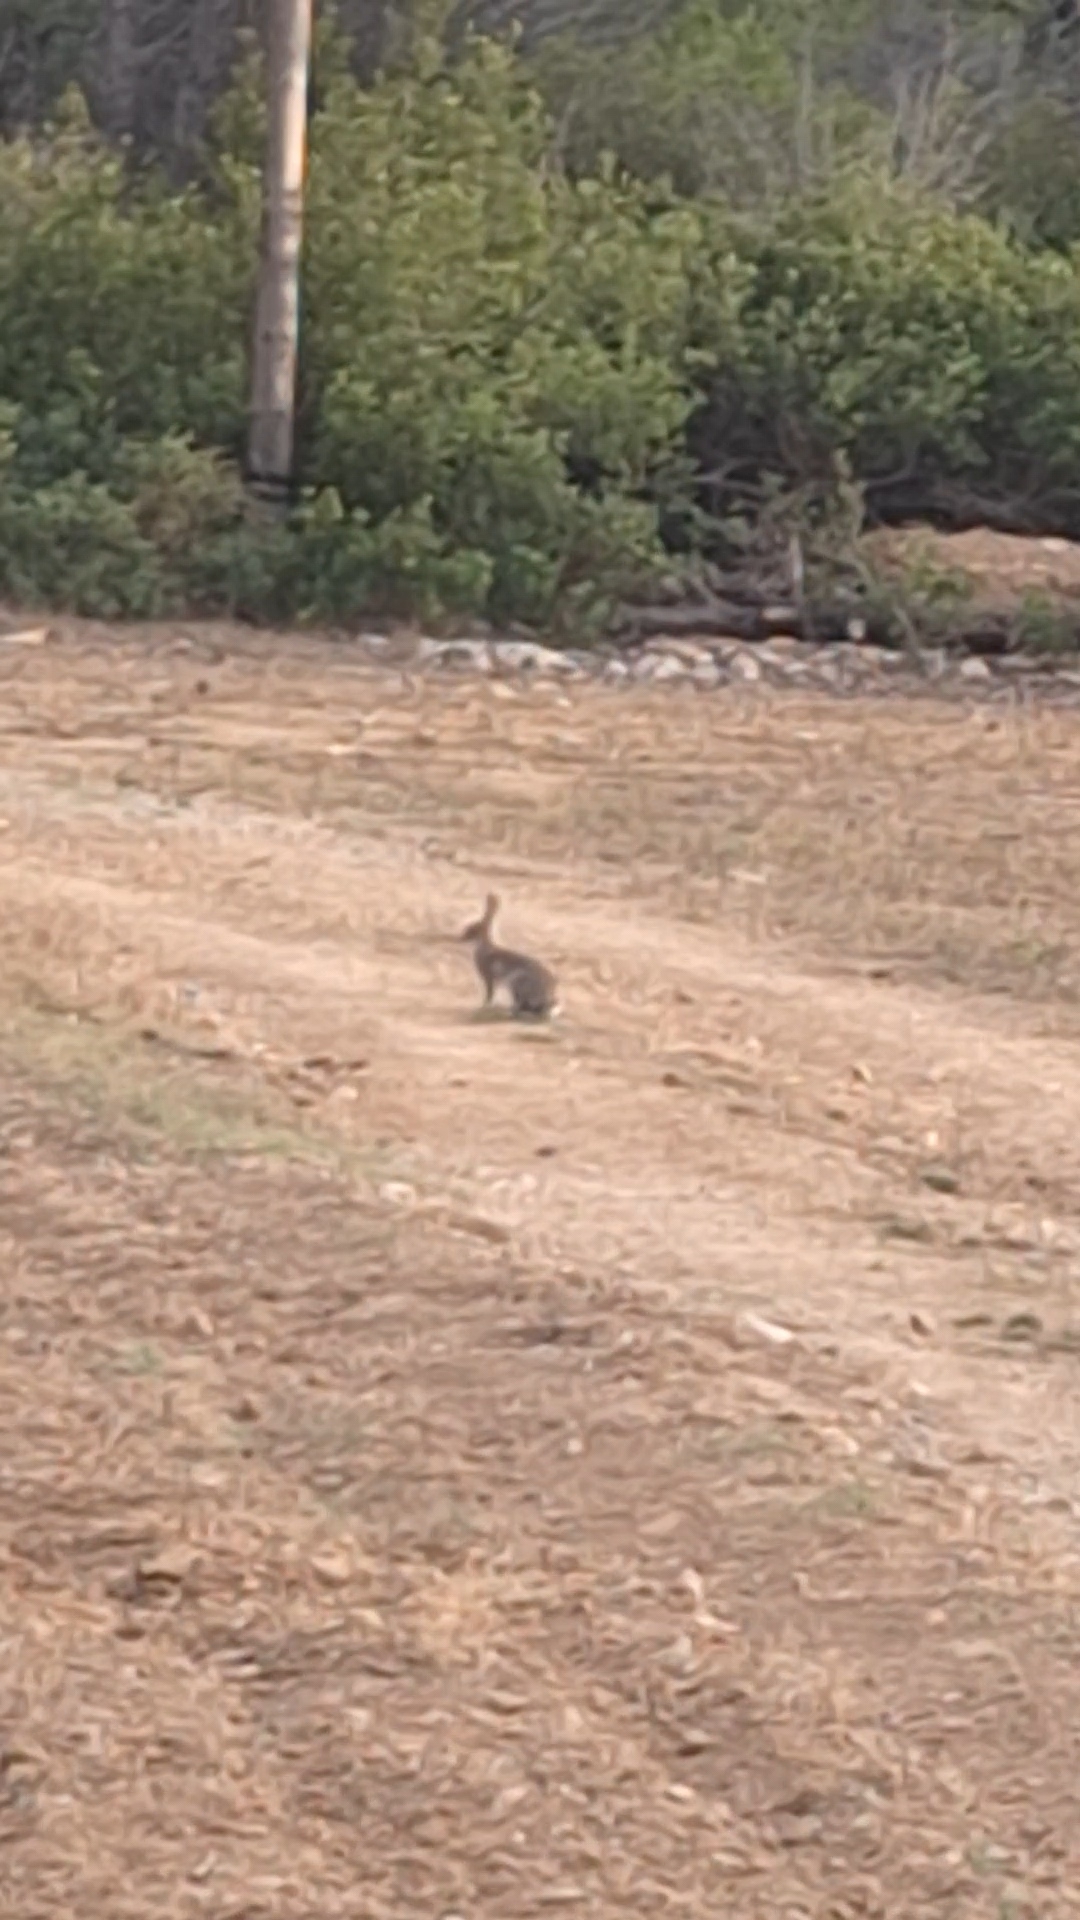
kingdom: Animalia
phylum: Chordata
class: Mammalia
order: Lagomorpha
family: Leporidae
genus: Oryctolagus
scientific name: Oryctolagus cuniculus
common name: European rabbit
